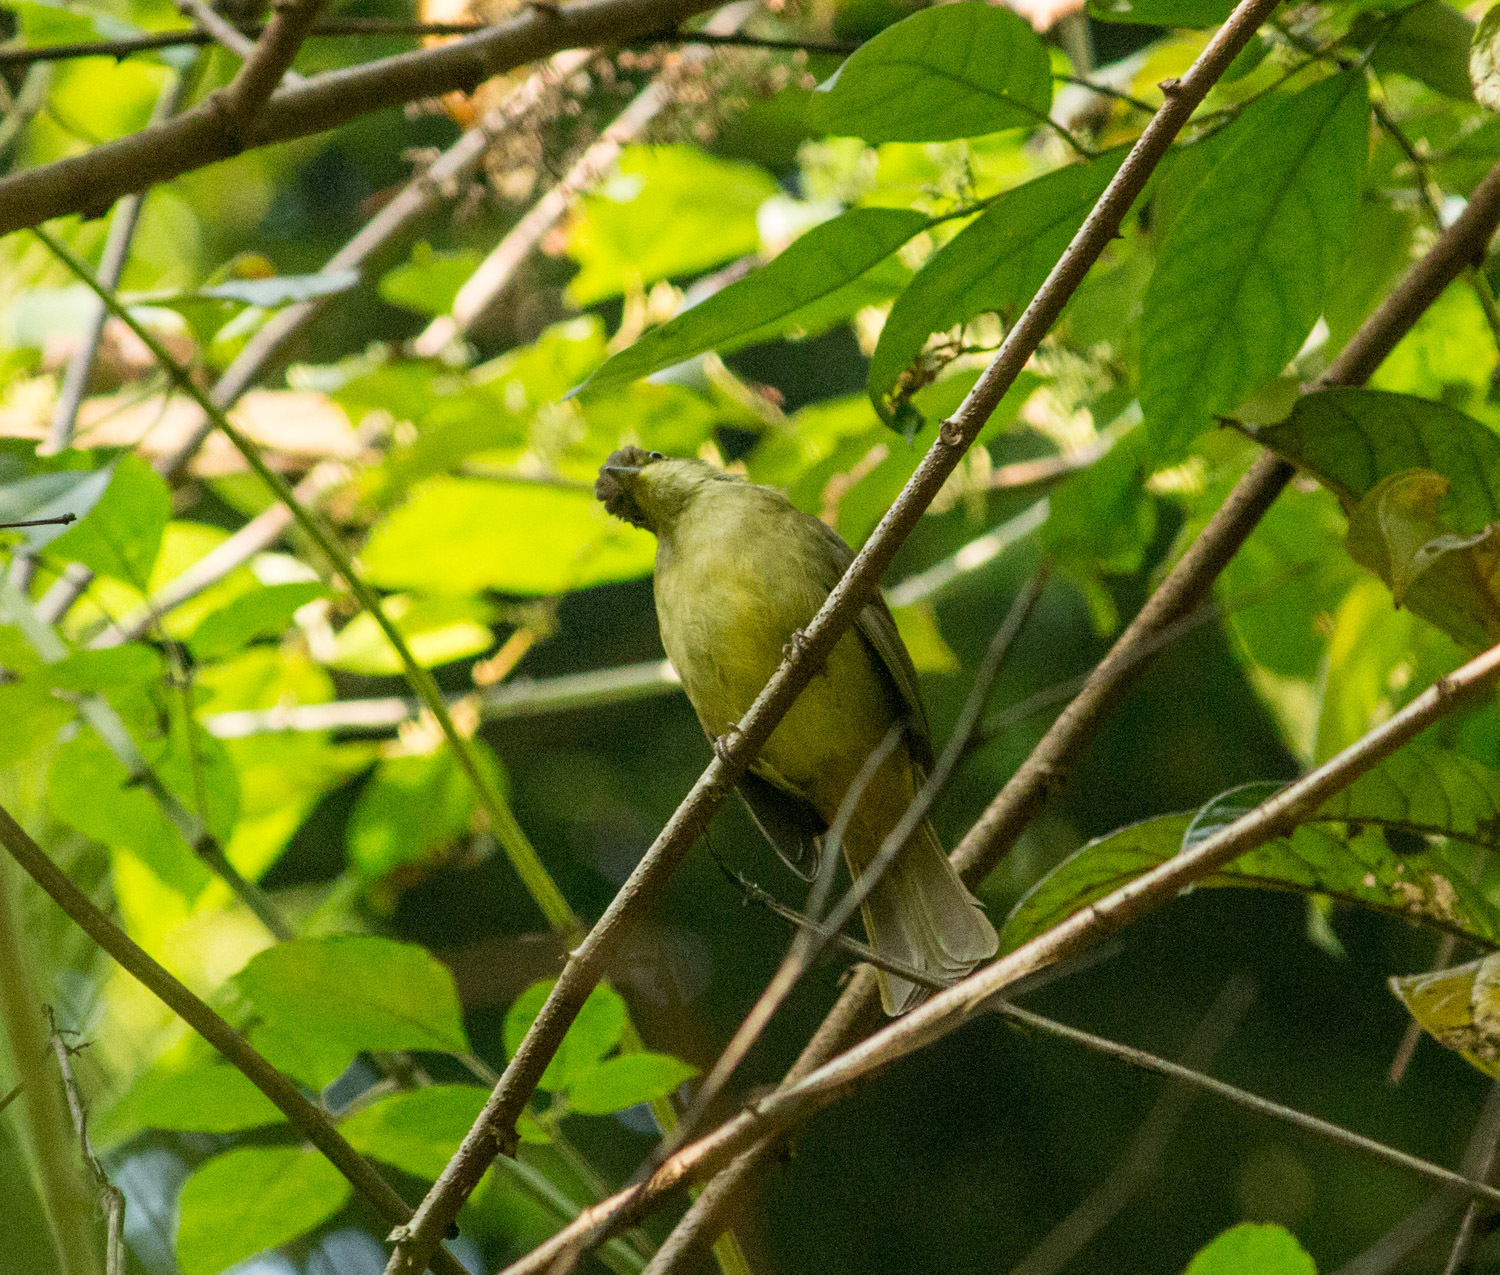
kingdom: Animalia
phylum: Chordata
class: Aves
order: Passeriformes
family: Pycnonotidae
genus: Iole
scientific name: Iole virescens
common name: Olive bulbul
